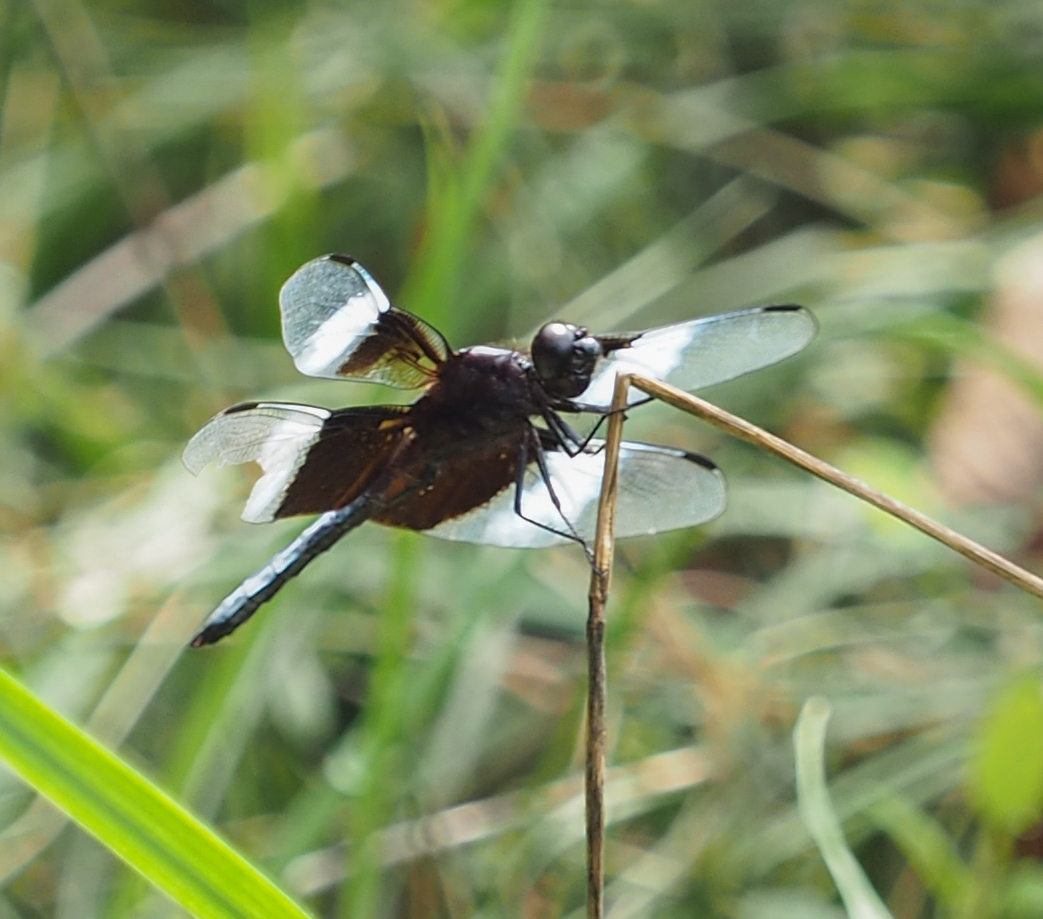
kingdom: Animalia
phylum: Arthropoda
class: Insecta
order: Odonata
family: Libellulidae
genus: Libellula
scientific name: Libellula luctuosa
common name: Widow skimmer
